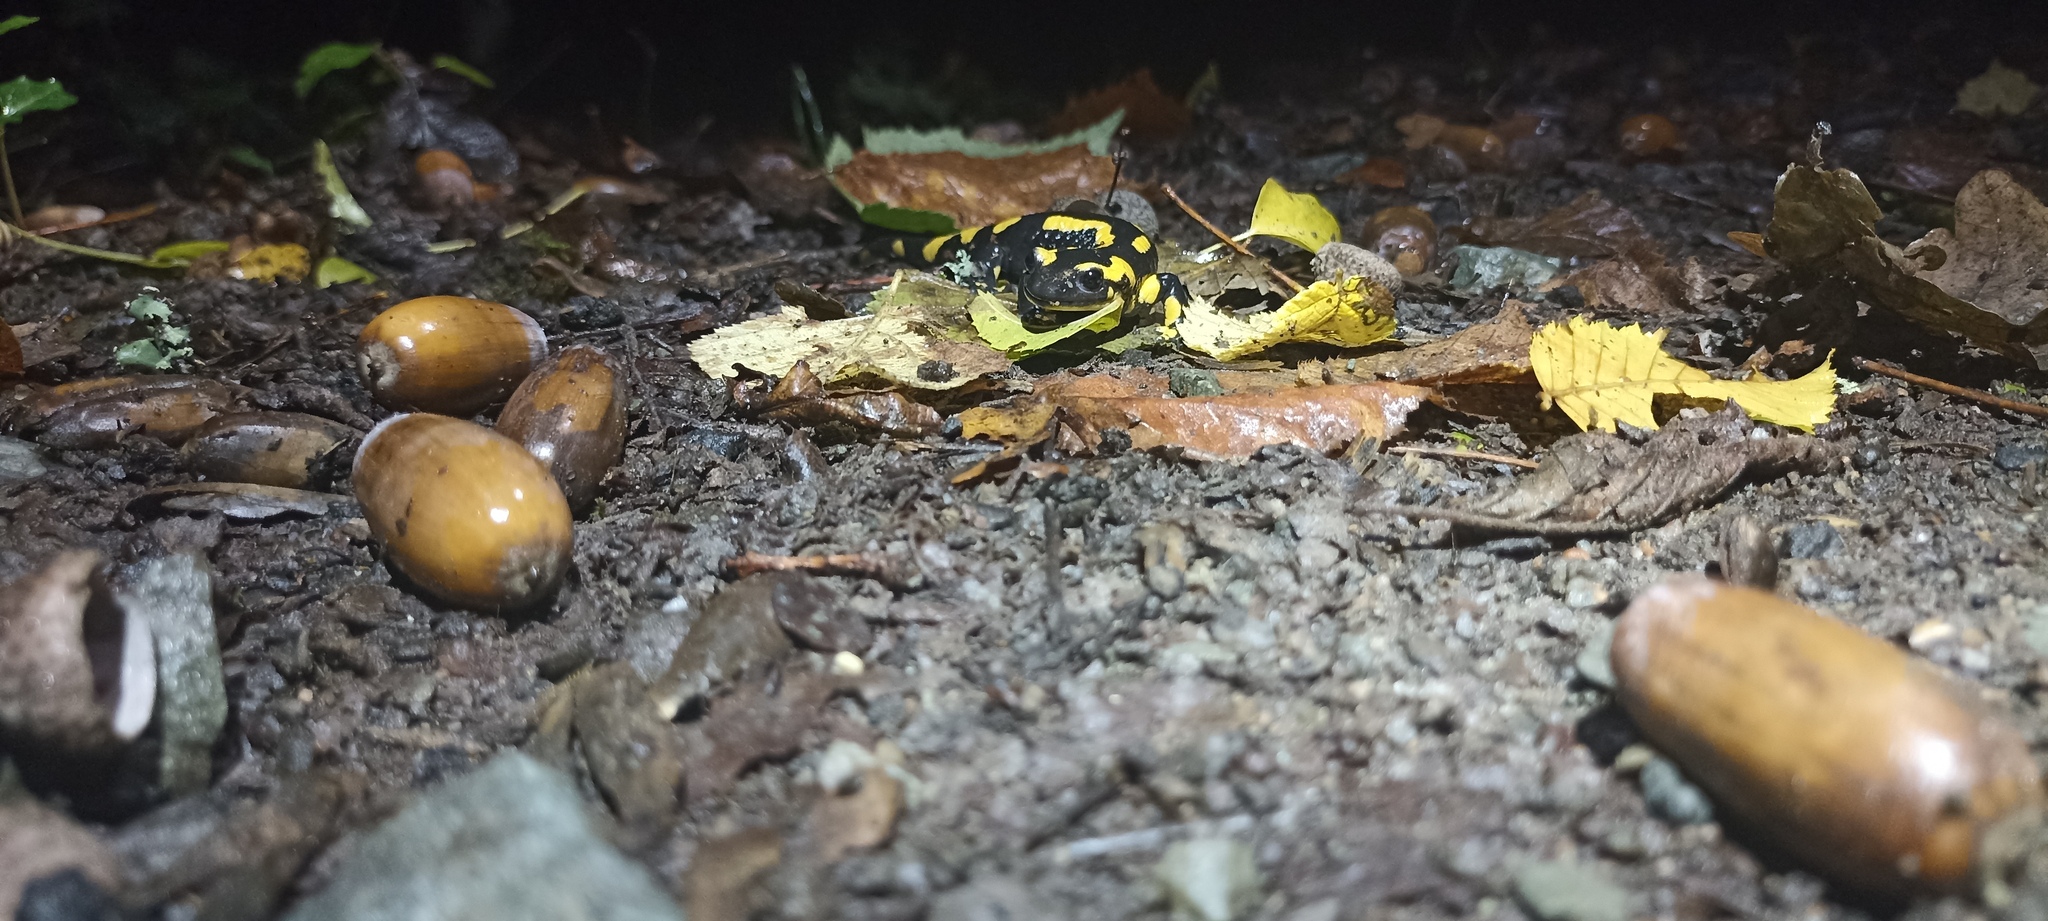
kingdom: Animalia
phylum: Chordata
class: Amphibia
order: Caudata
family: Salamandridae
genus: Salamandra
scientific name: Salamandra salamandra
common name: Fire salamander
